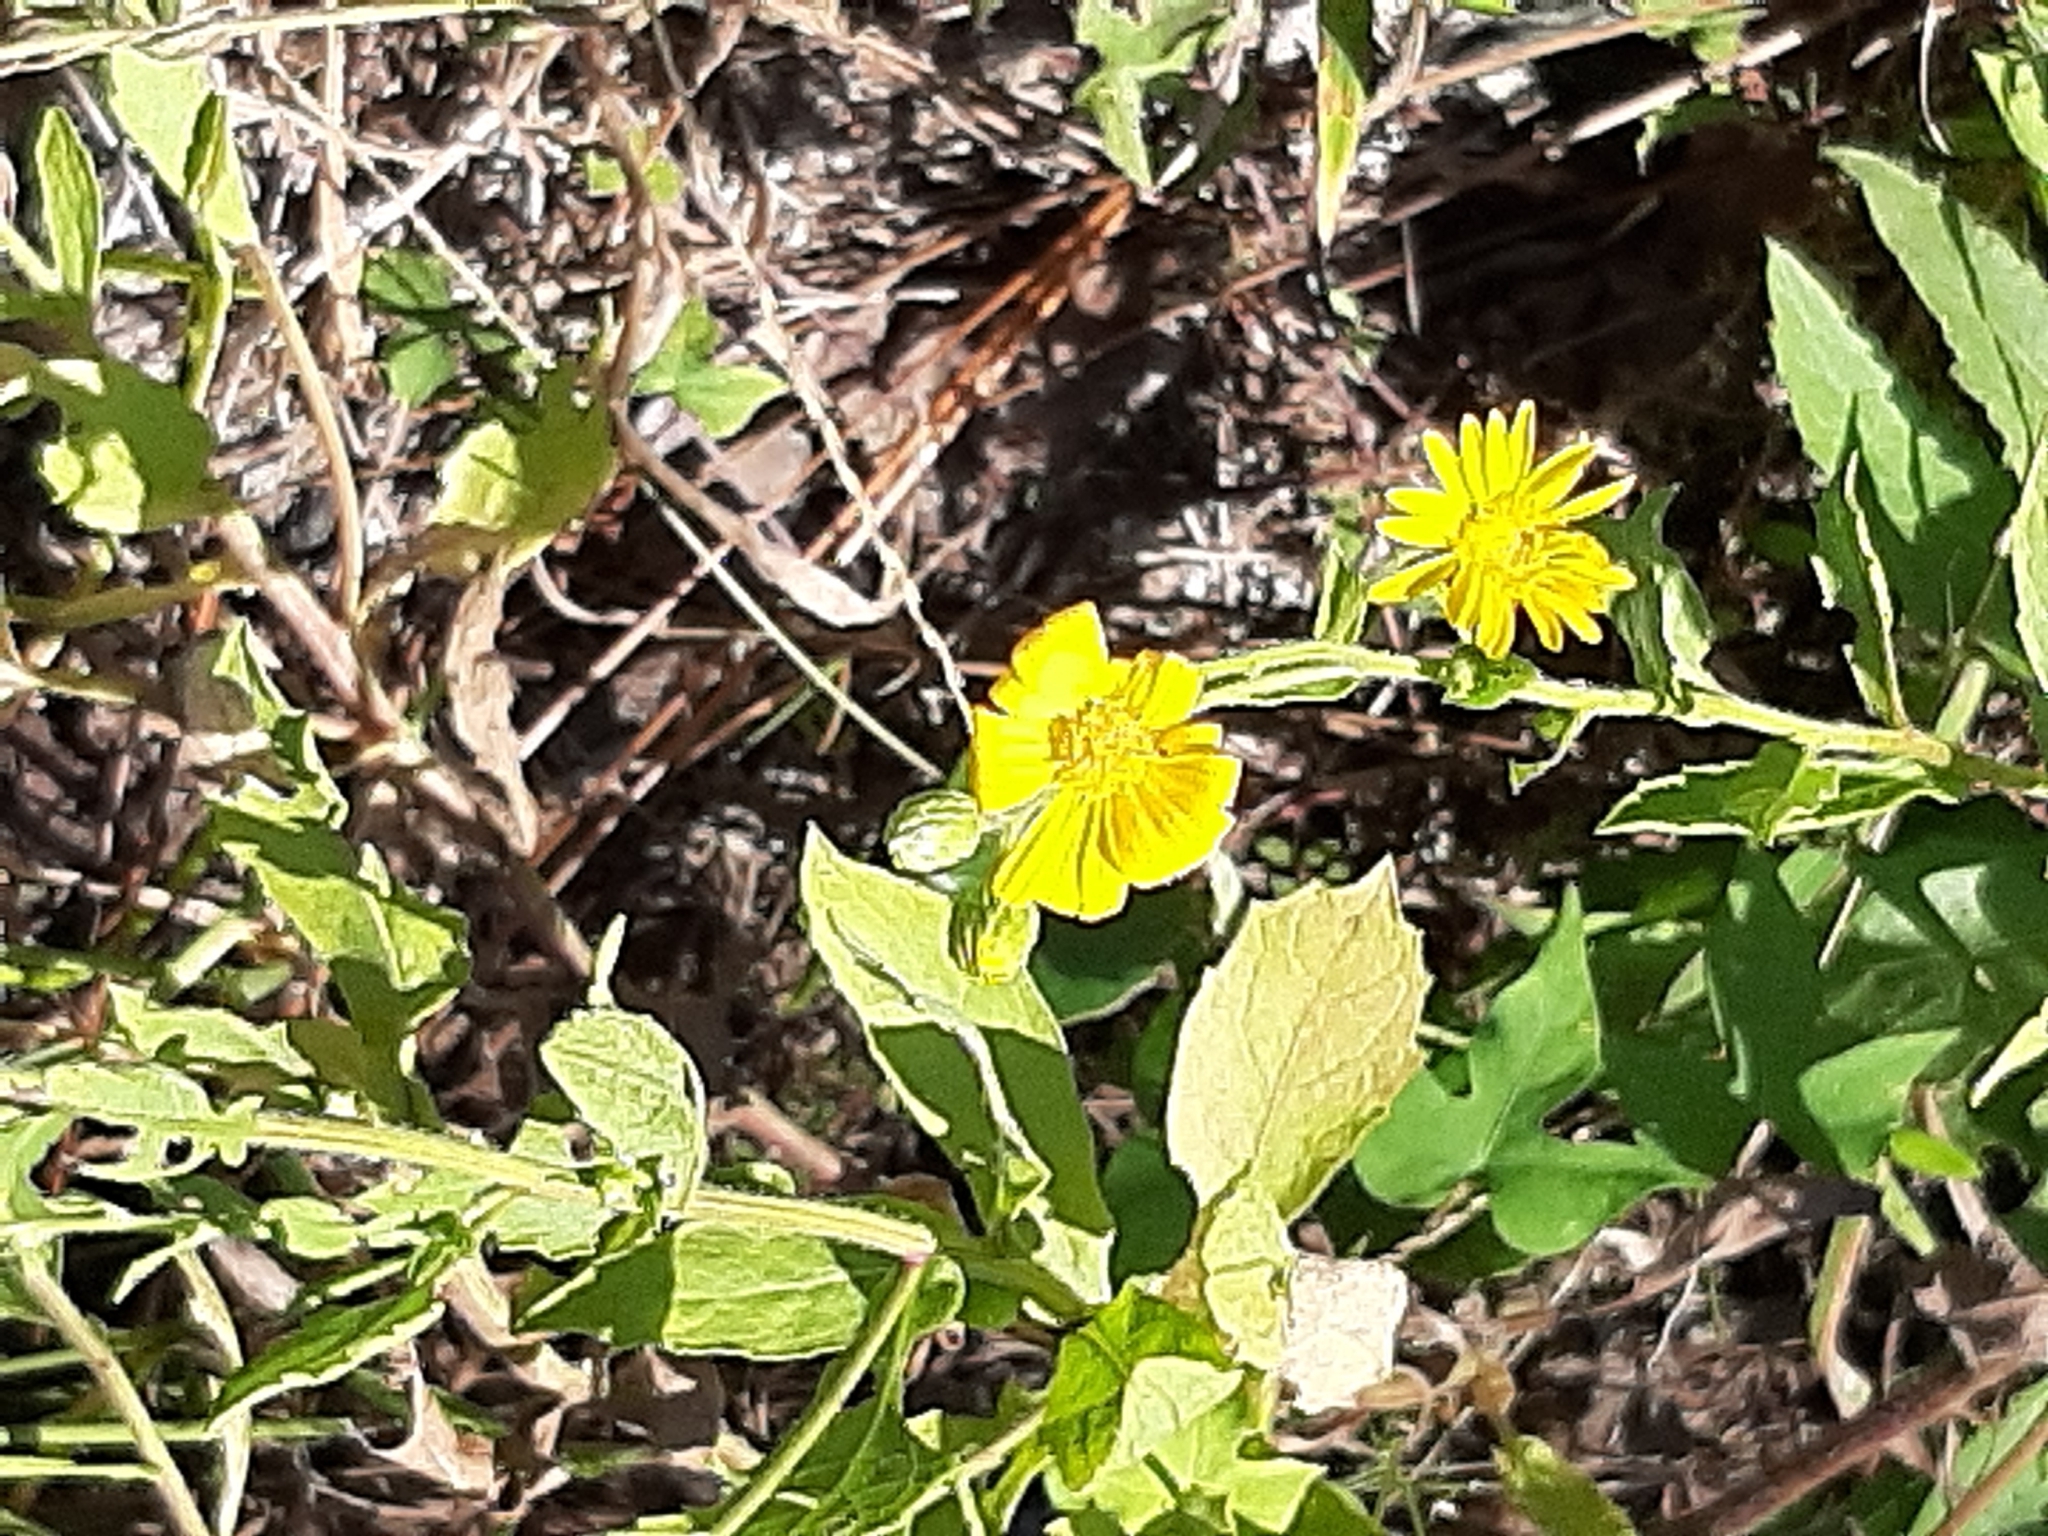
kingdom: Plantae
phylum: Tracheophyta
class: Magnoliopsida
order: Asterales
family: Asteraceae
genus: Heterotheca
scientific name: Heterotheca subaxillaris
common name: Camphorweed
